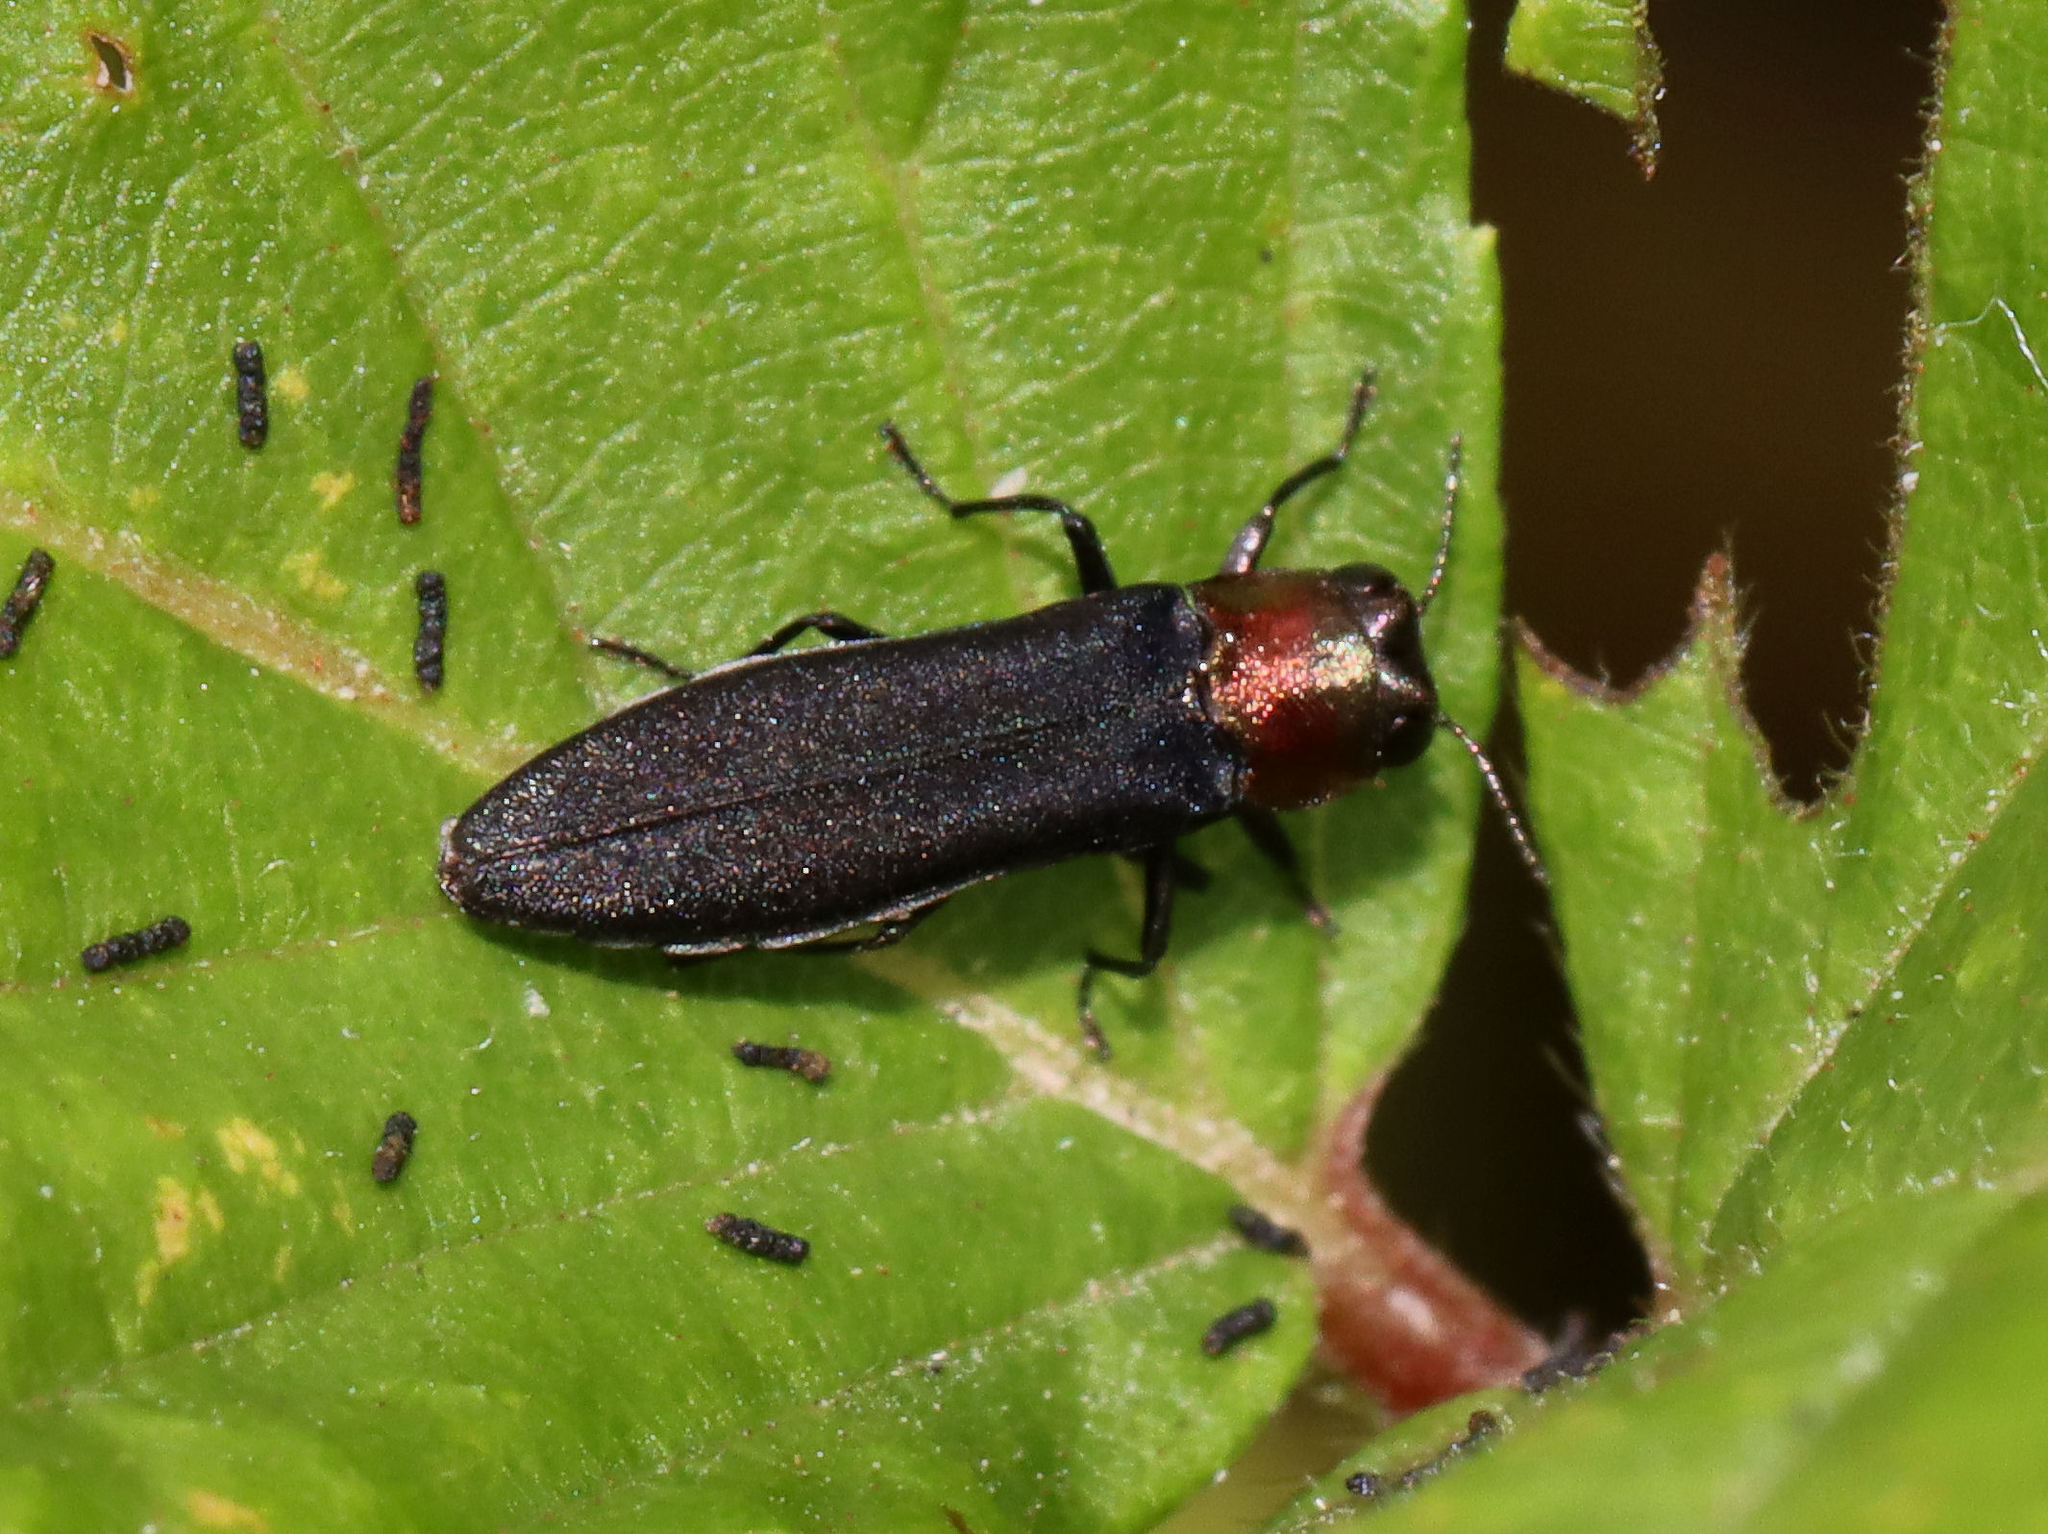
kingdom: Animalia
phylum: Arthropoda
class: Insecta
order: Coleoptera
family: Buprestidae
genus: Agrilus
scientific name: Agrilus ruficollis
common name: Red-necked cane borer beetle
